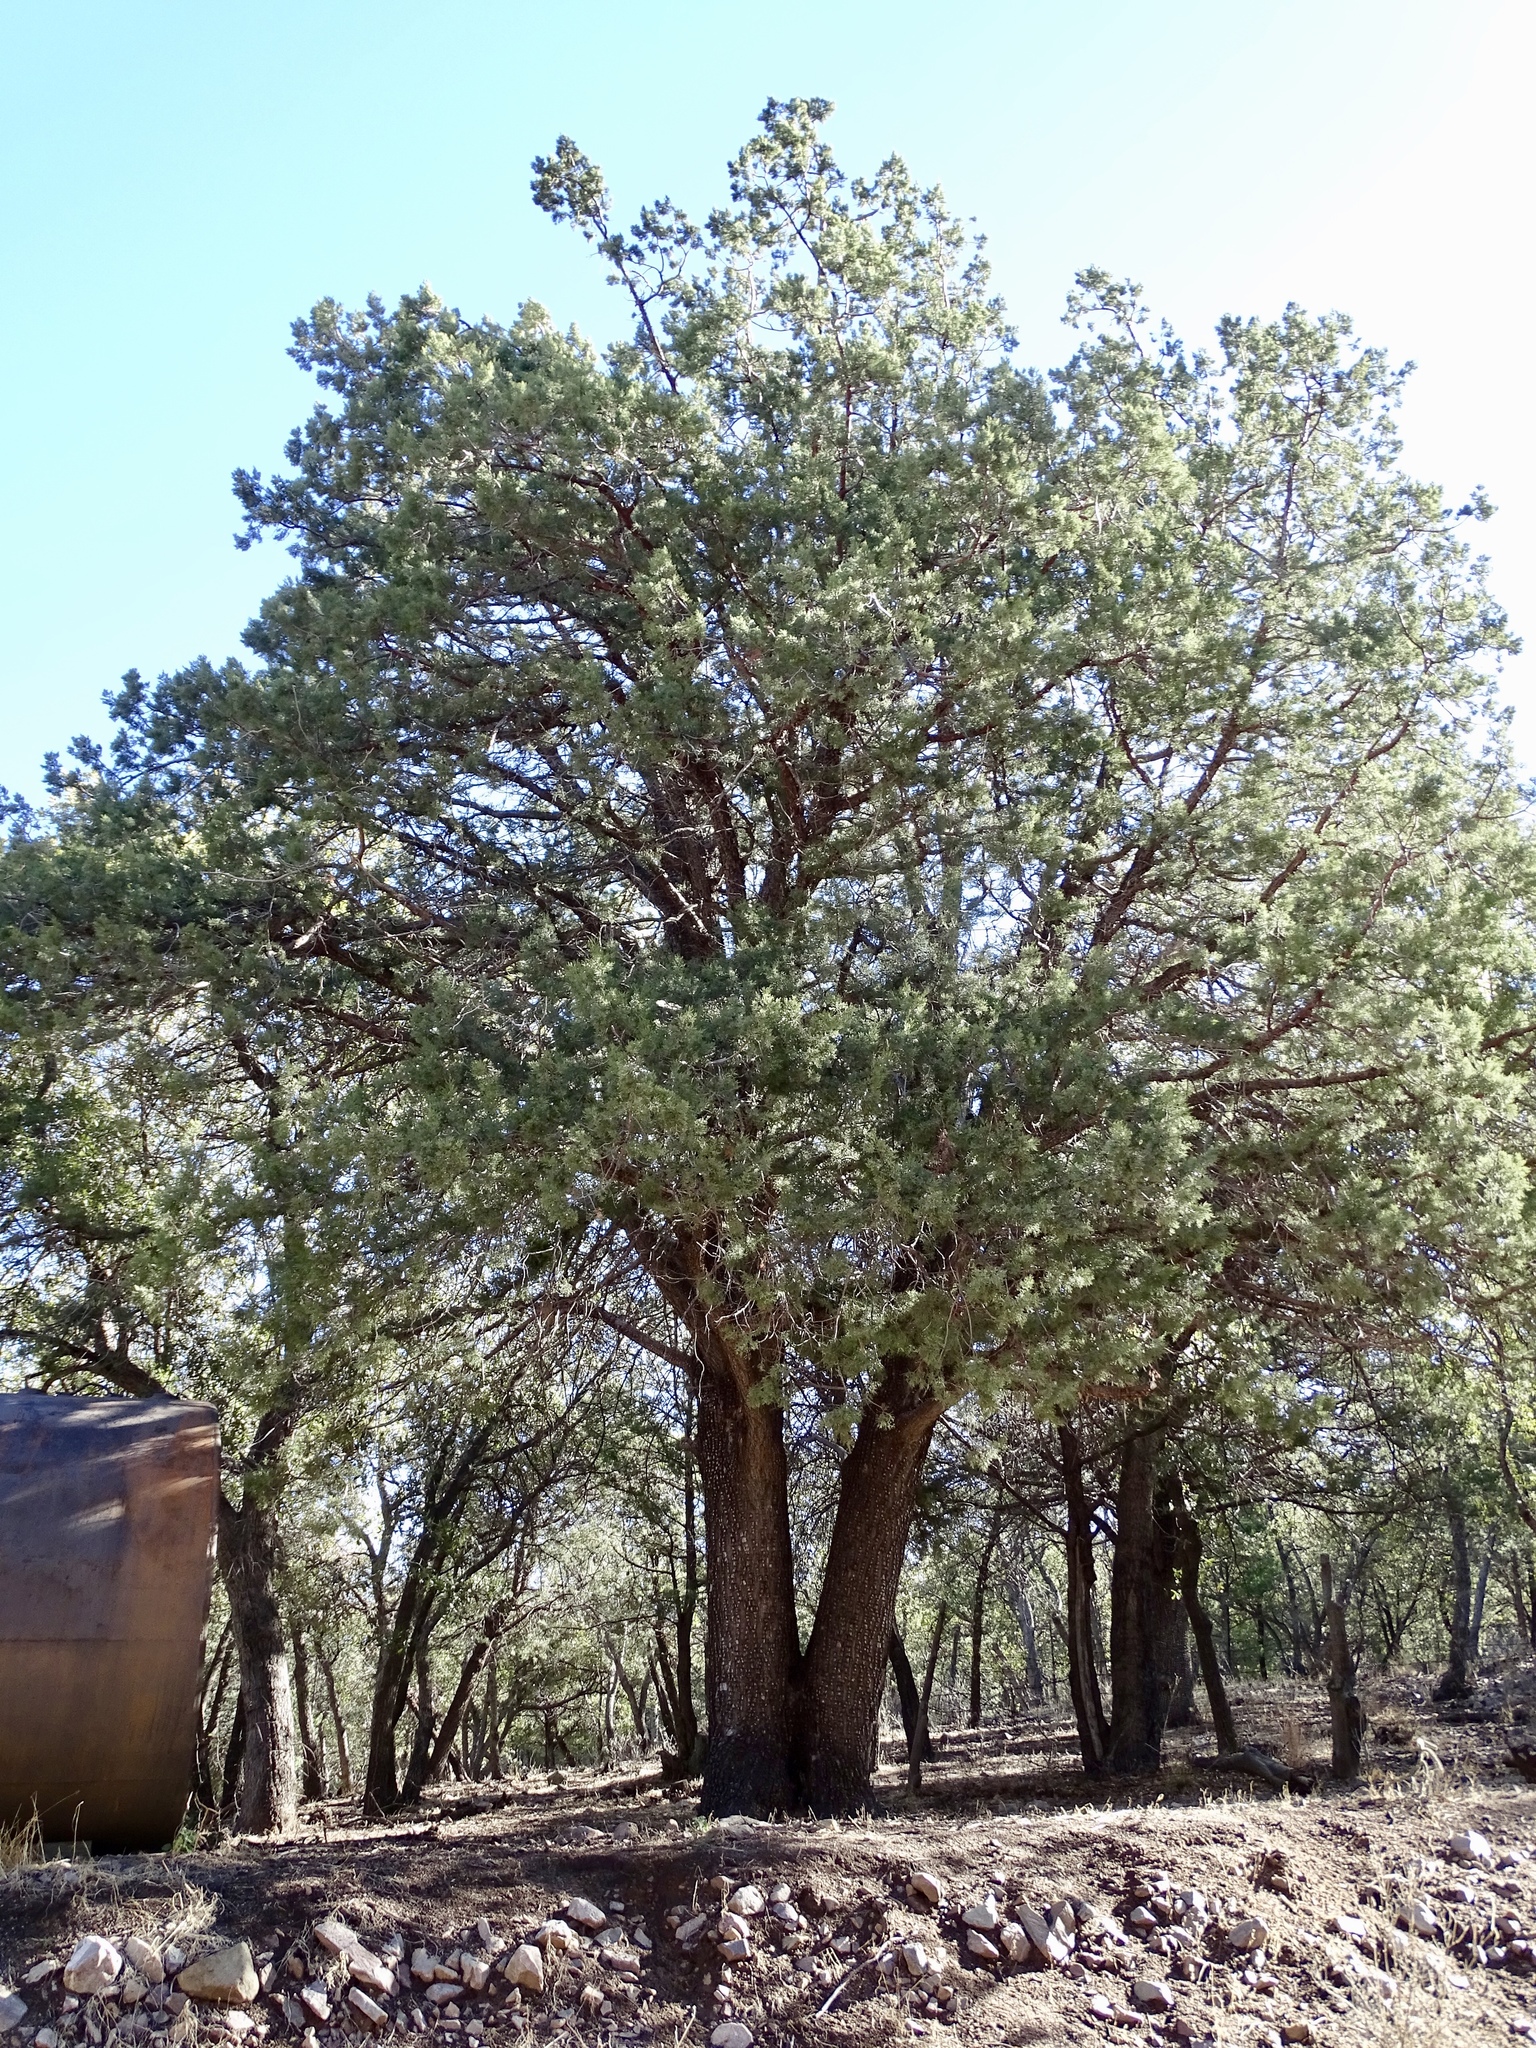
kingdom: Plantae
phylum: Tracheophyta
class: Pinopsida
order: Pinales
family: Cupressaceae
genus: Juniperus
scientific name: Juniperus deppeana
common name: Alligator juniper
